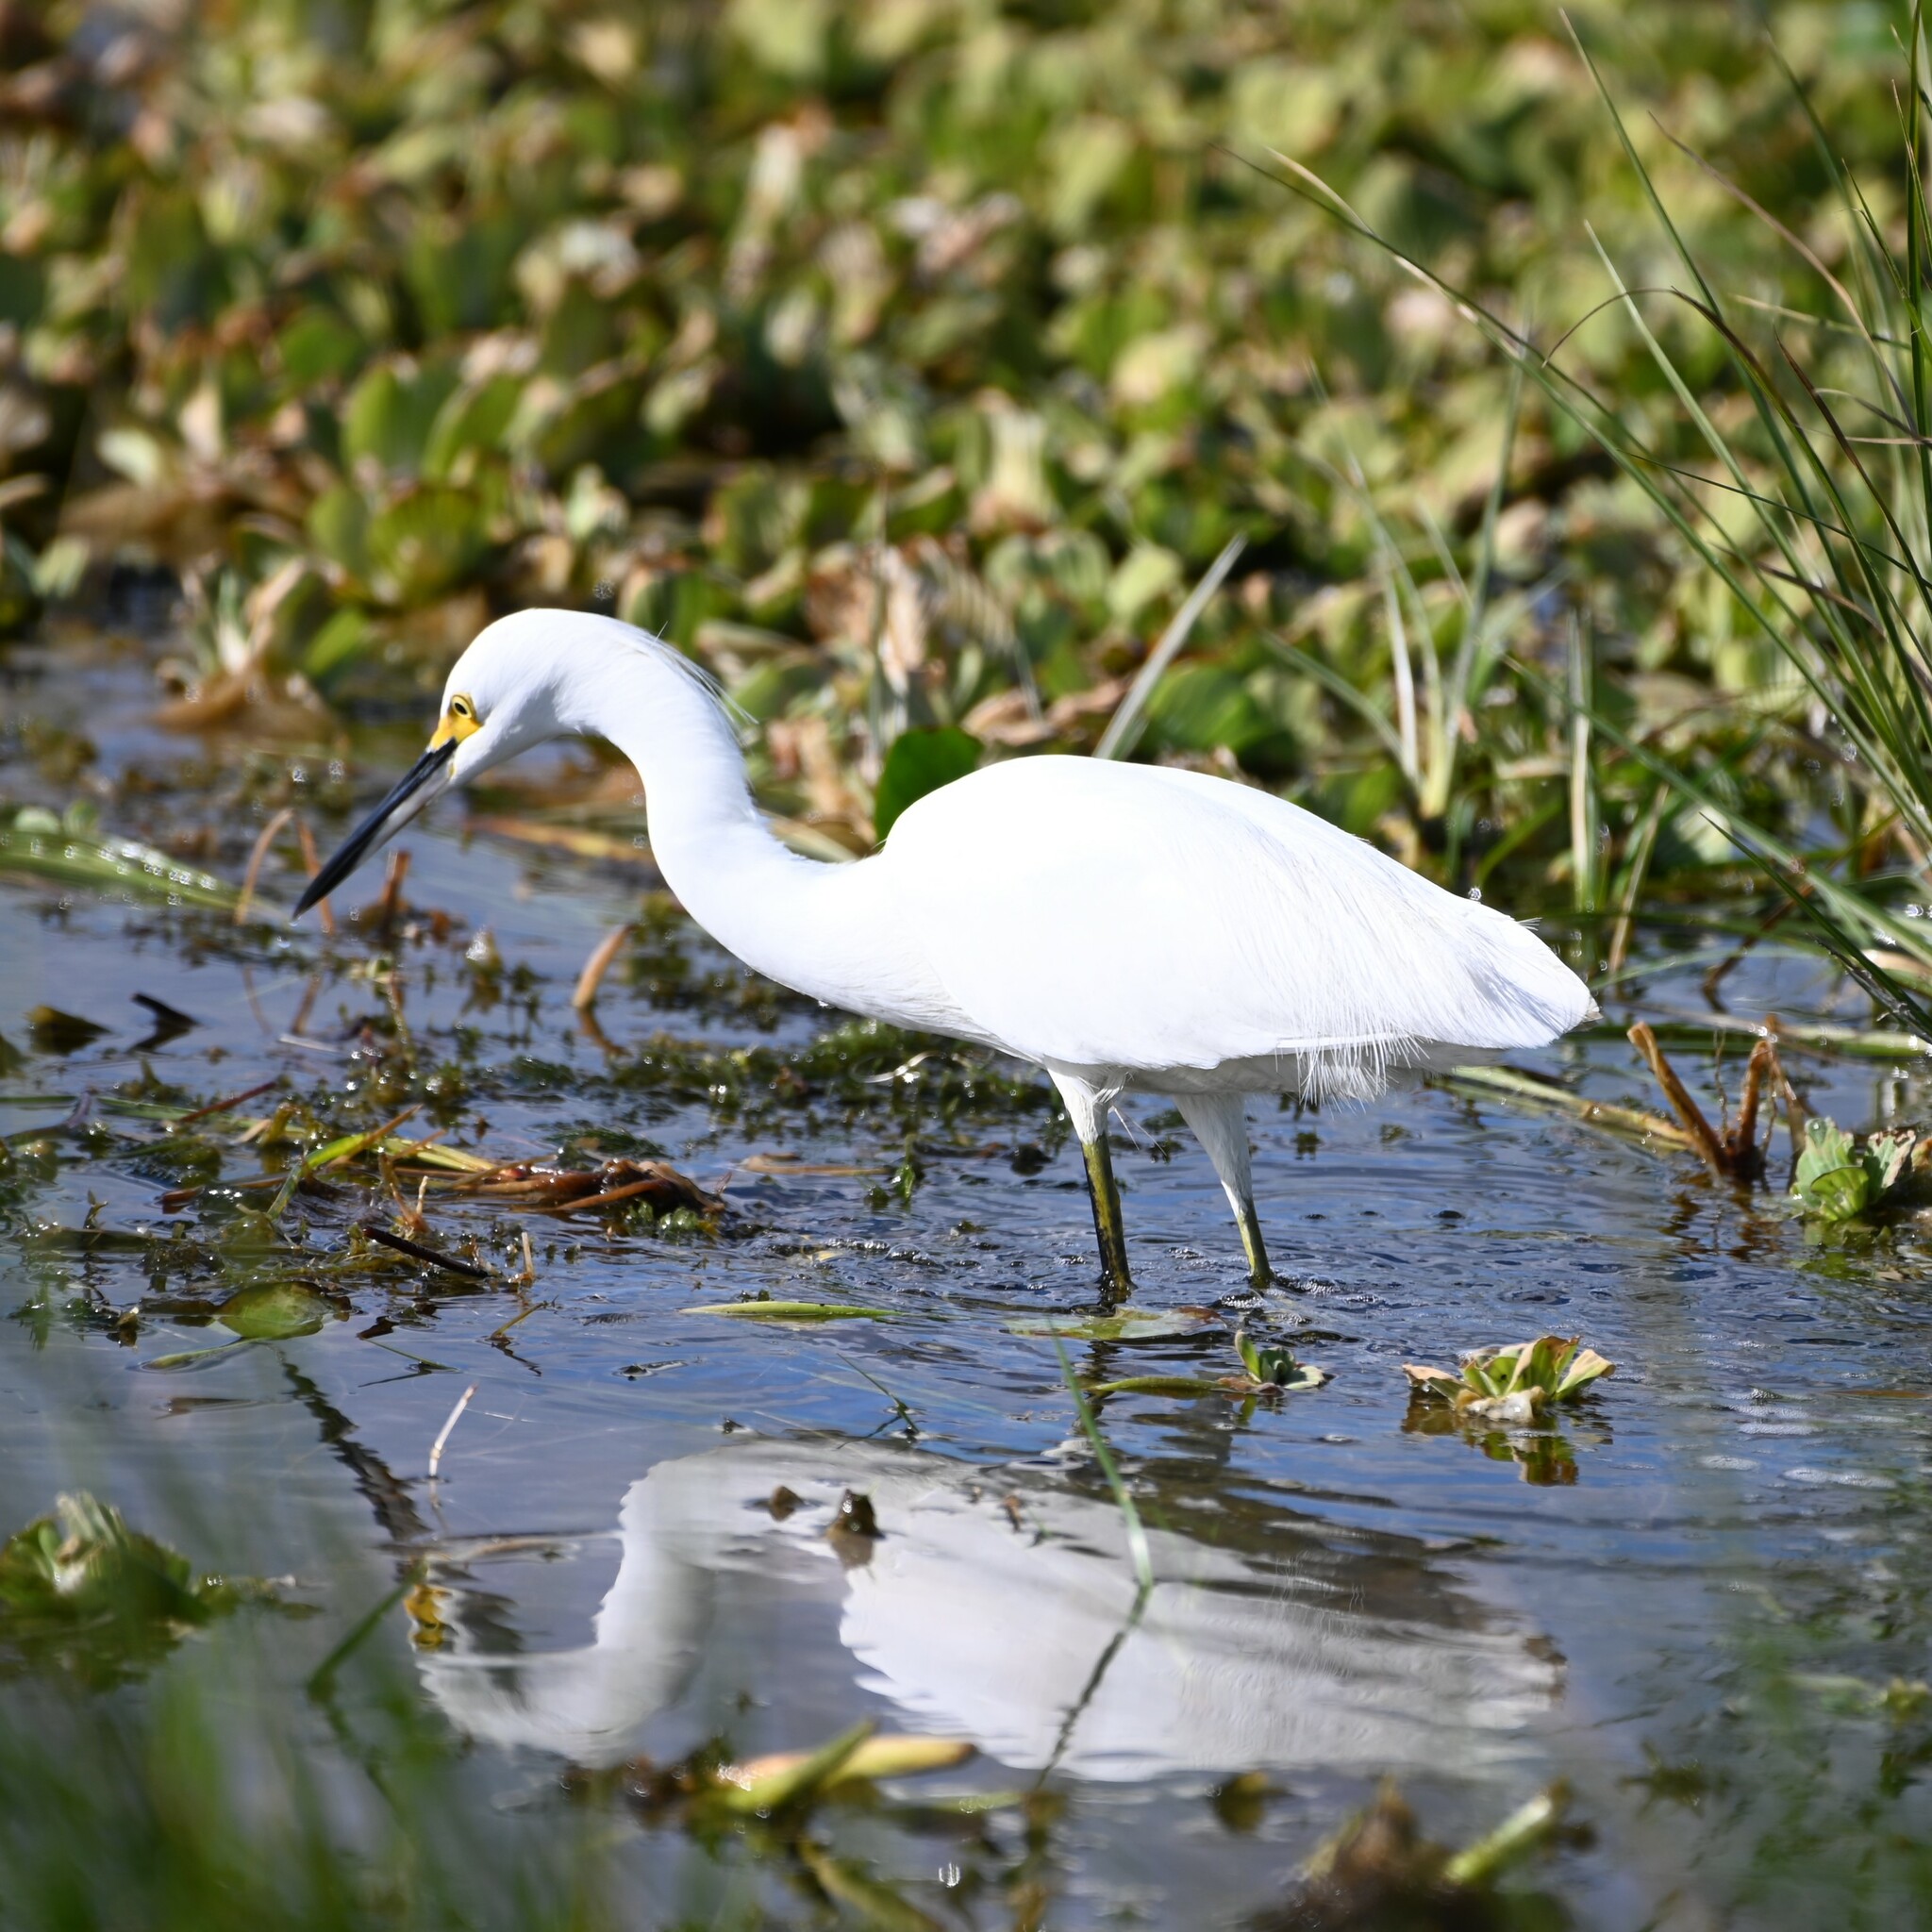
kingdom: Animalia
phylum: Chordata
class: Aves
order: Pelecaniformes
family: Ardeidae
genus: Egretta
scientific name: Egretta thula
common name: Snowy egret
